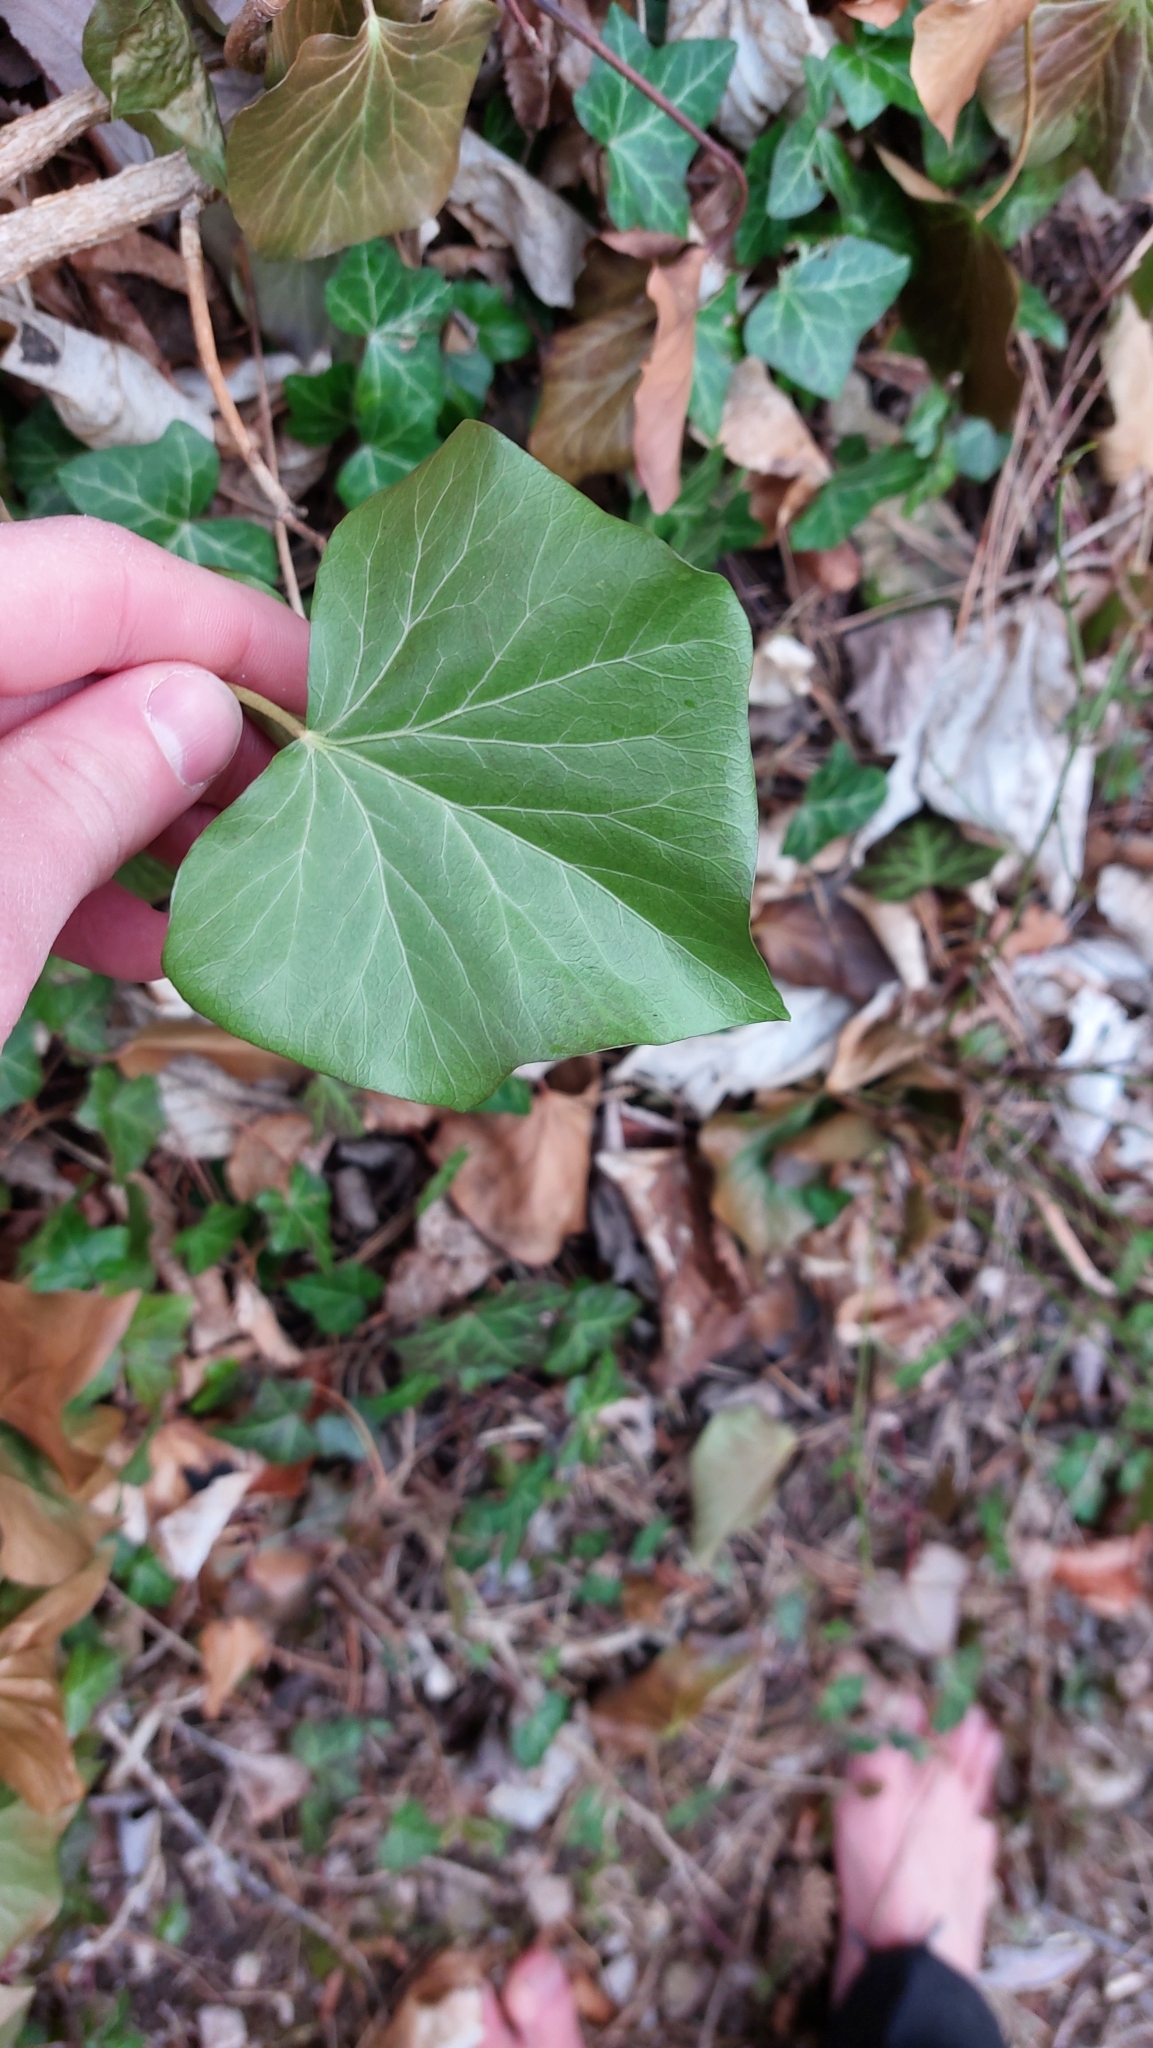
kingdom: Plantae
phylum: Tracheophyta
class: Magnoliopsida
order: Apiales
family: Araliaceae
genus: Hedera
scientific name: Hedera helix
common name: Ivy
